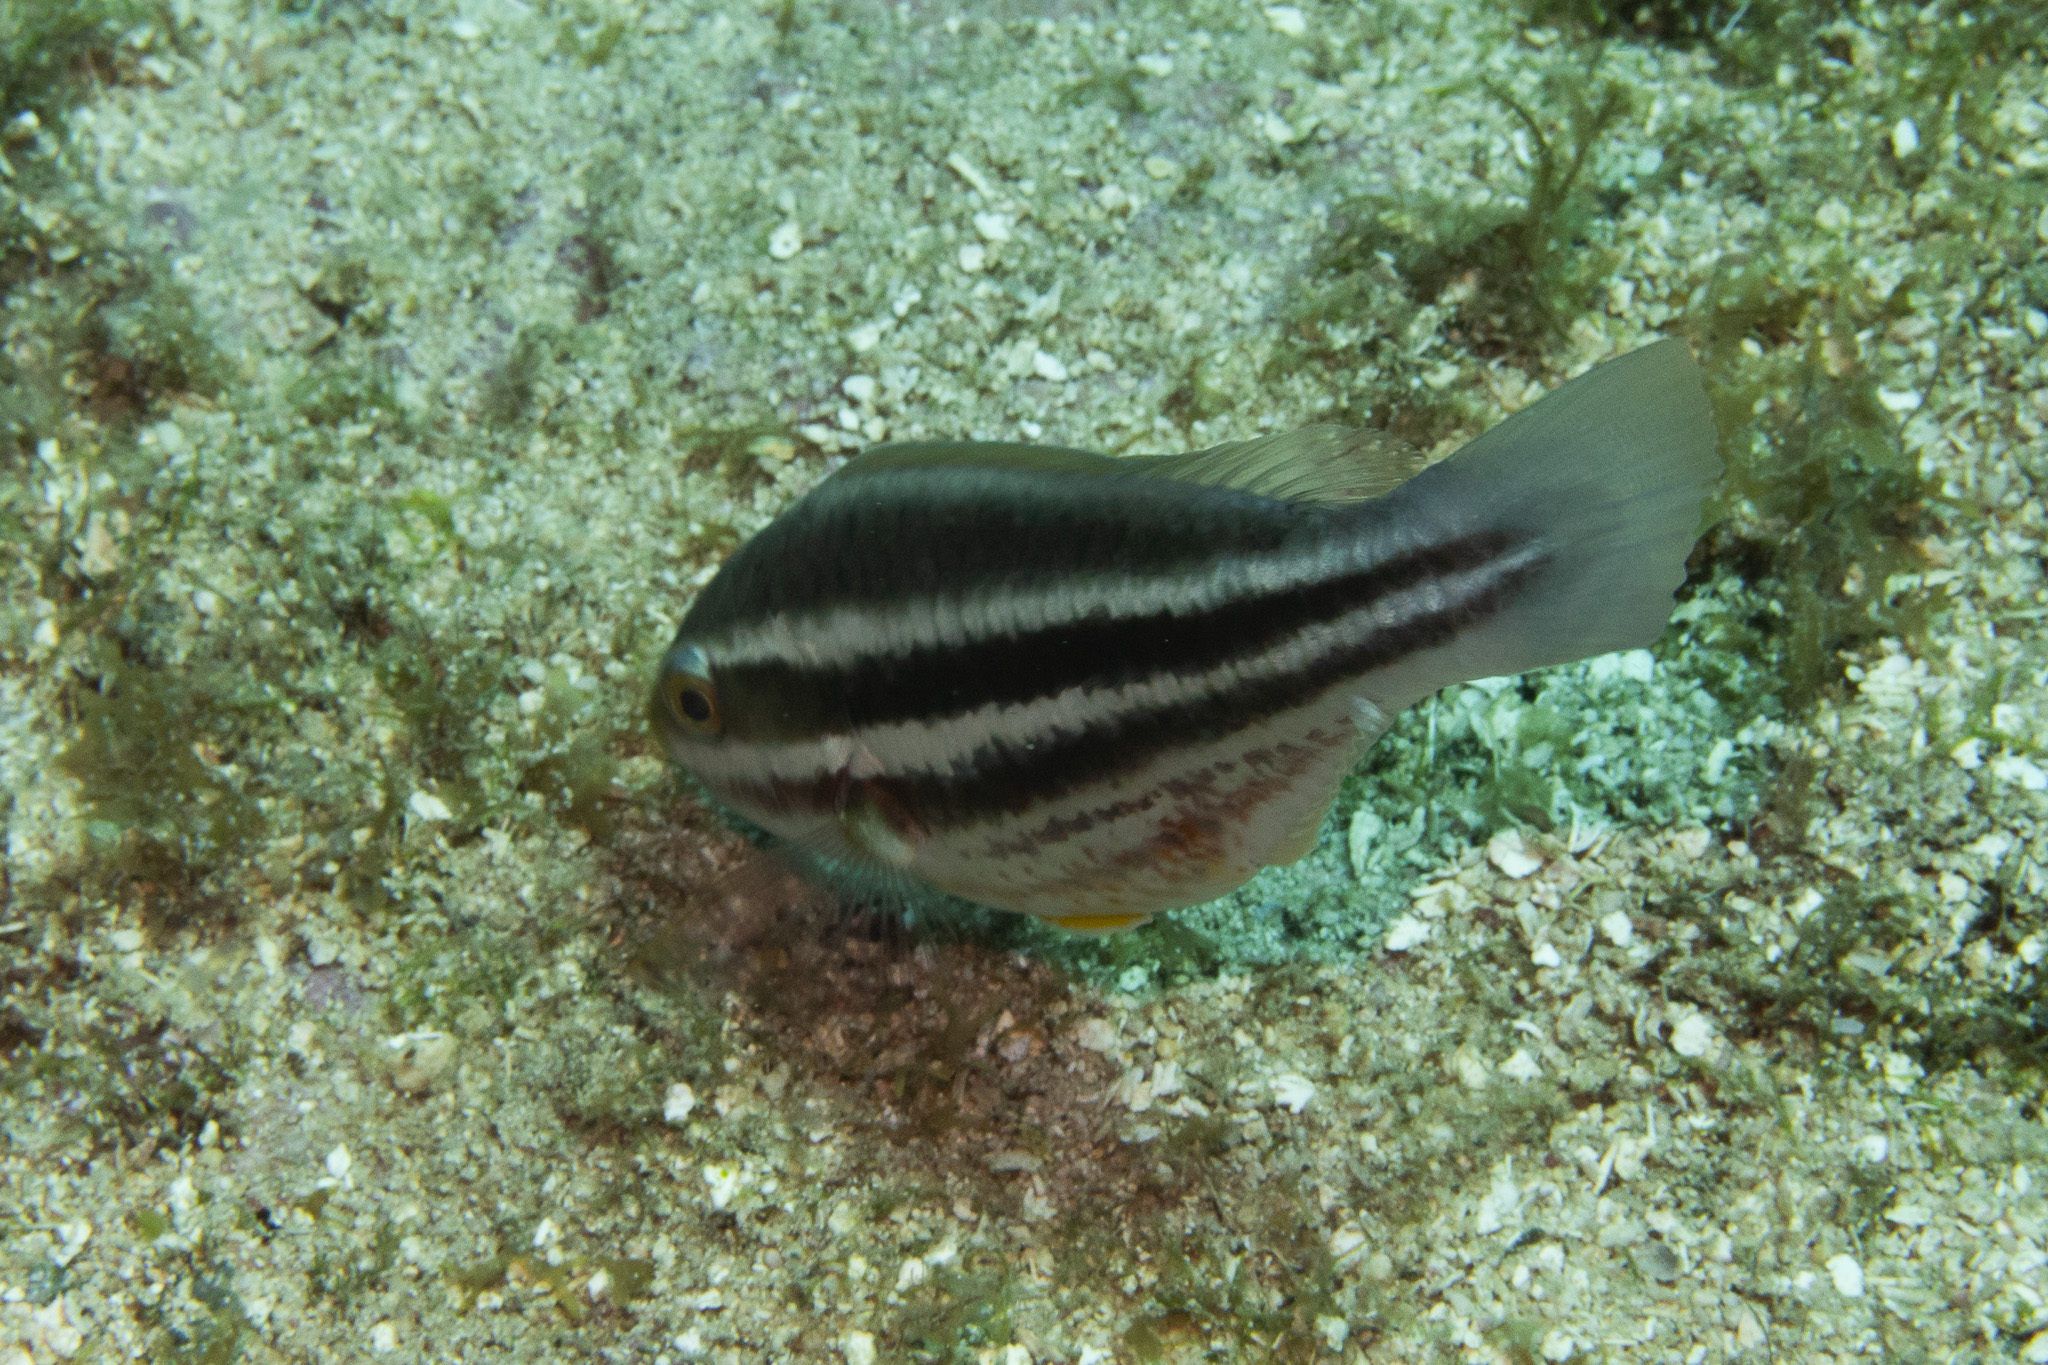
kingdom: Animalia
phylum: Chordata
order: Perciformes
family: Scaridae
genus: Scarus
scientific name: Scarus iseri
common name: Striped parrotfish
